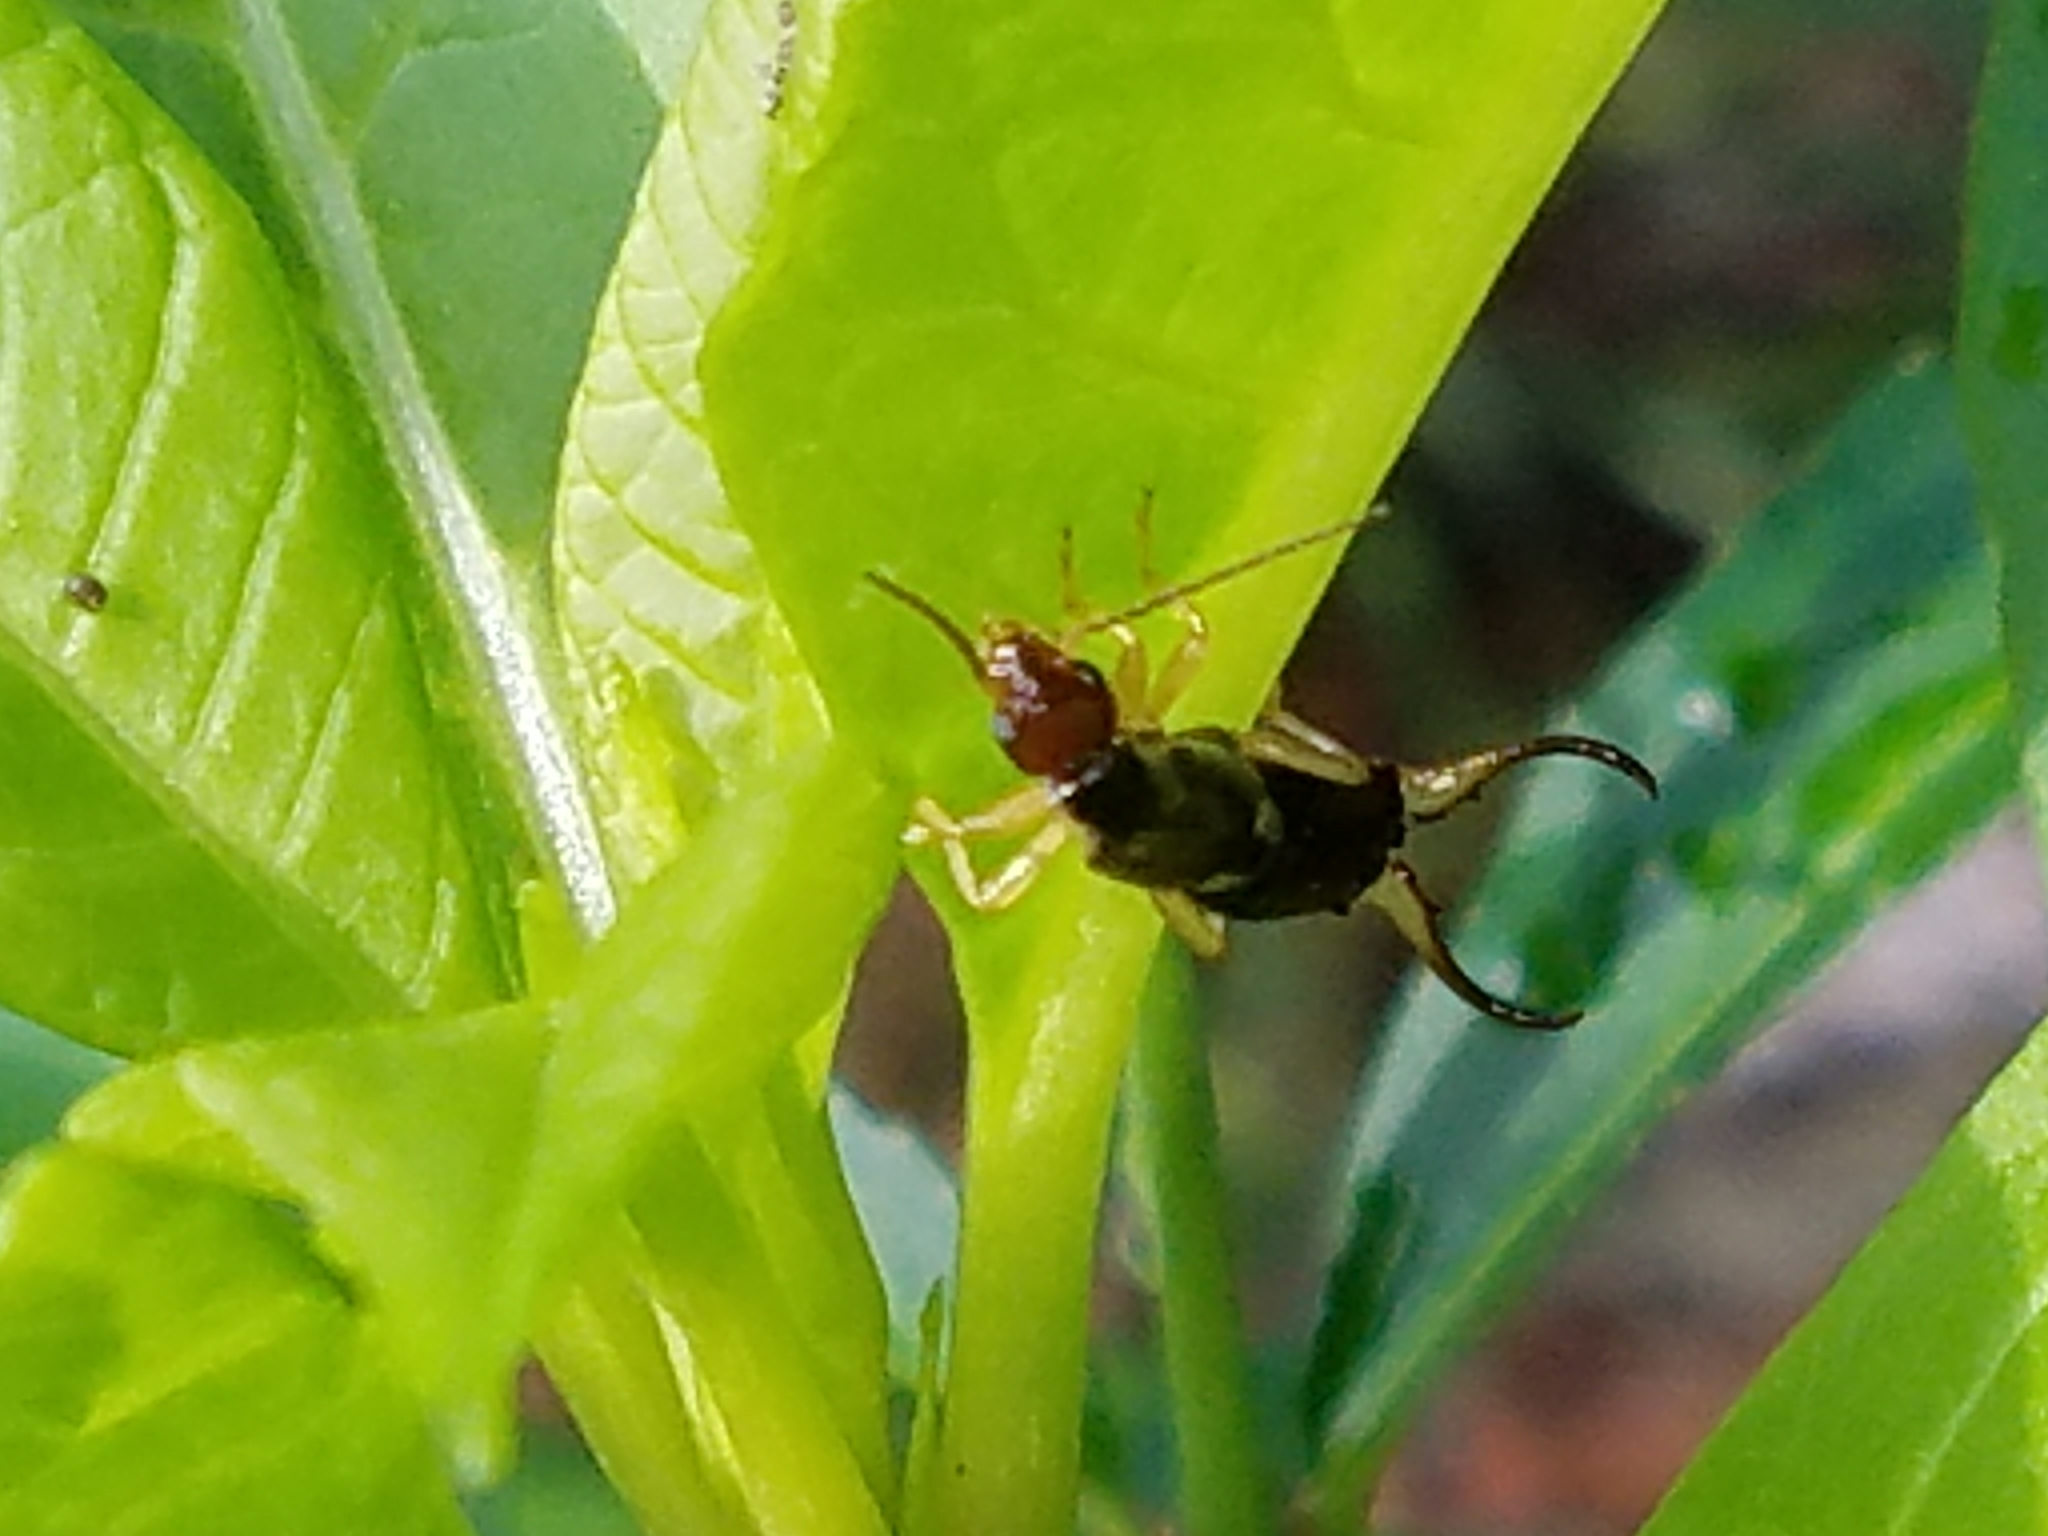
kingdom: Animalia
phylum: Arthropoda
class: Insecta
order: Dermaptera
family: Forficulidae
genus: Forficula
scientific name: Forficula
